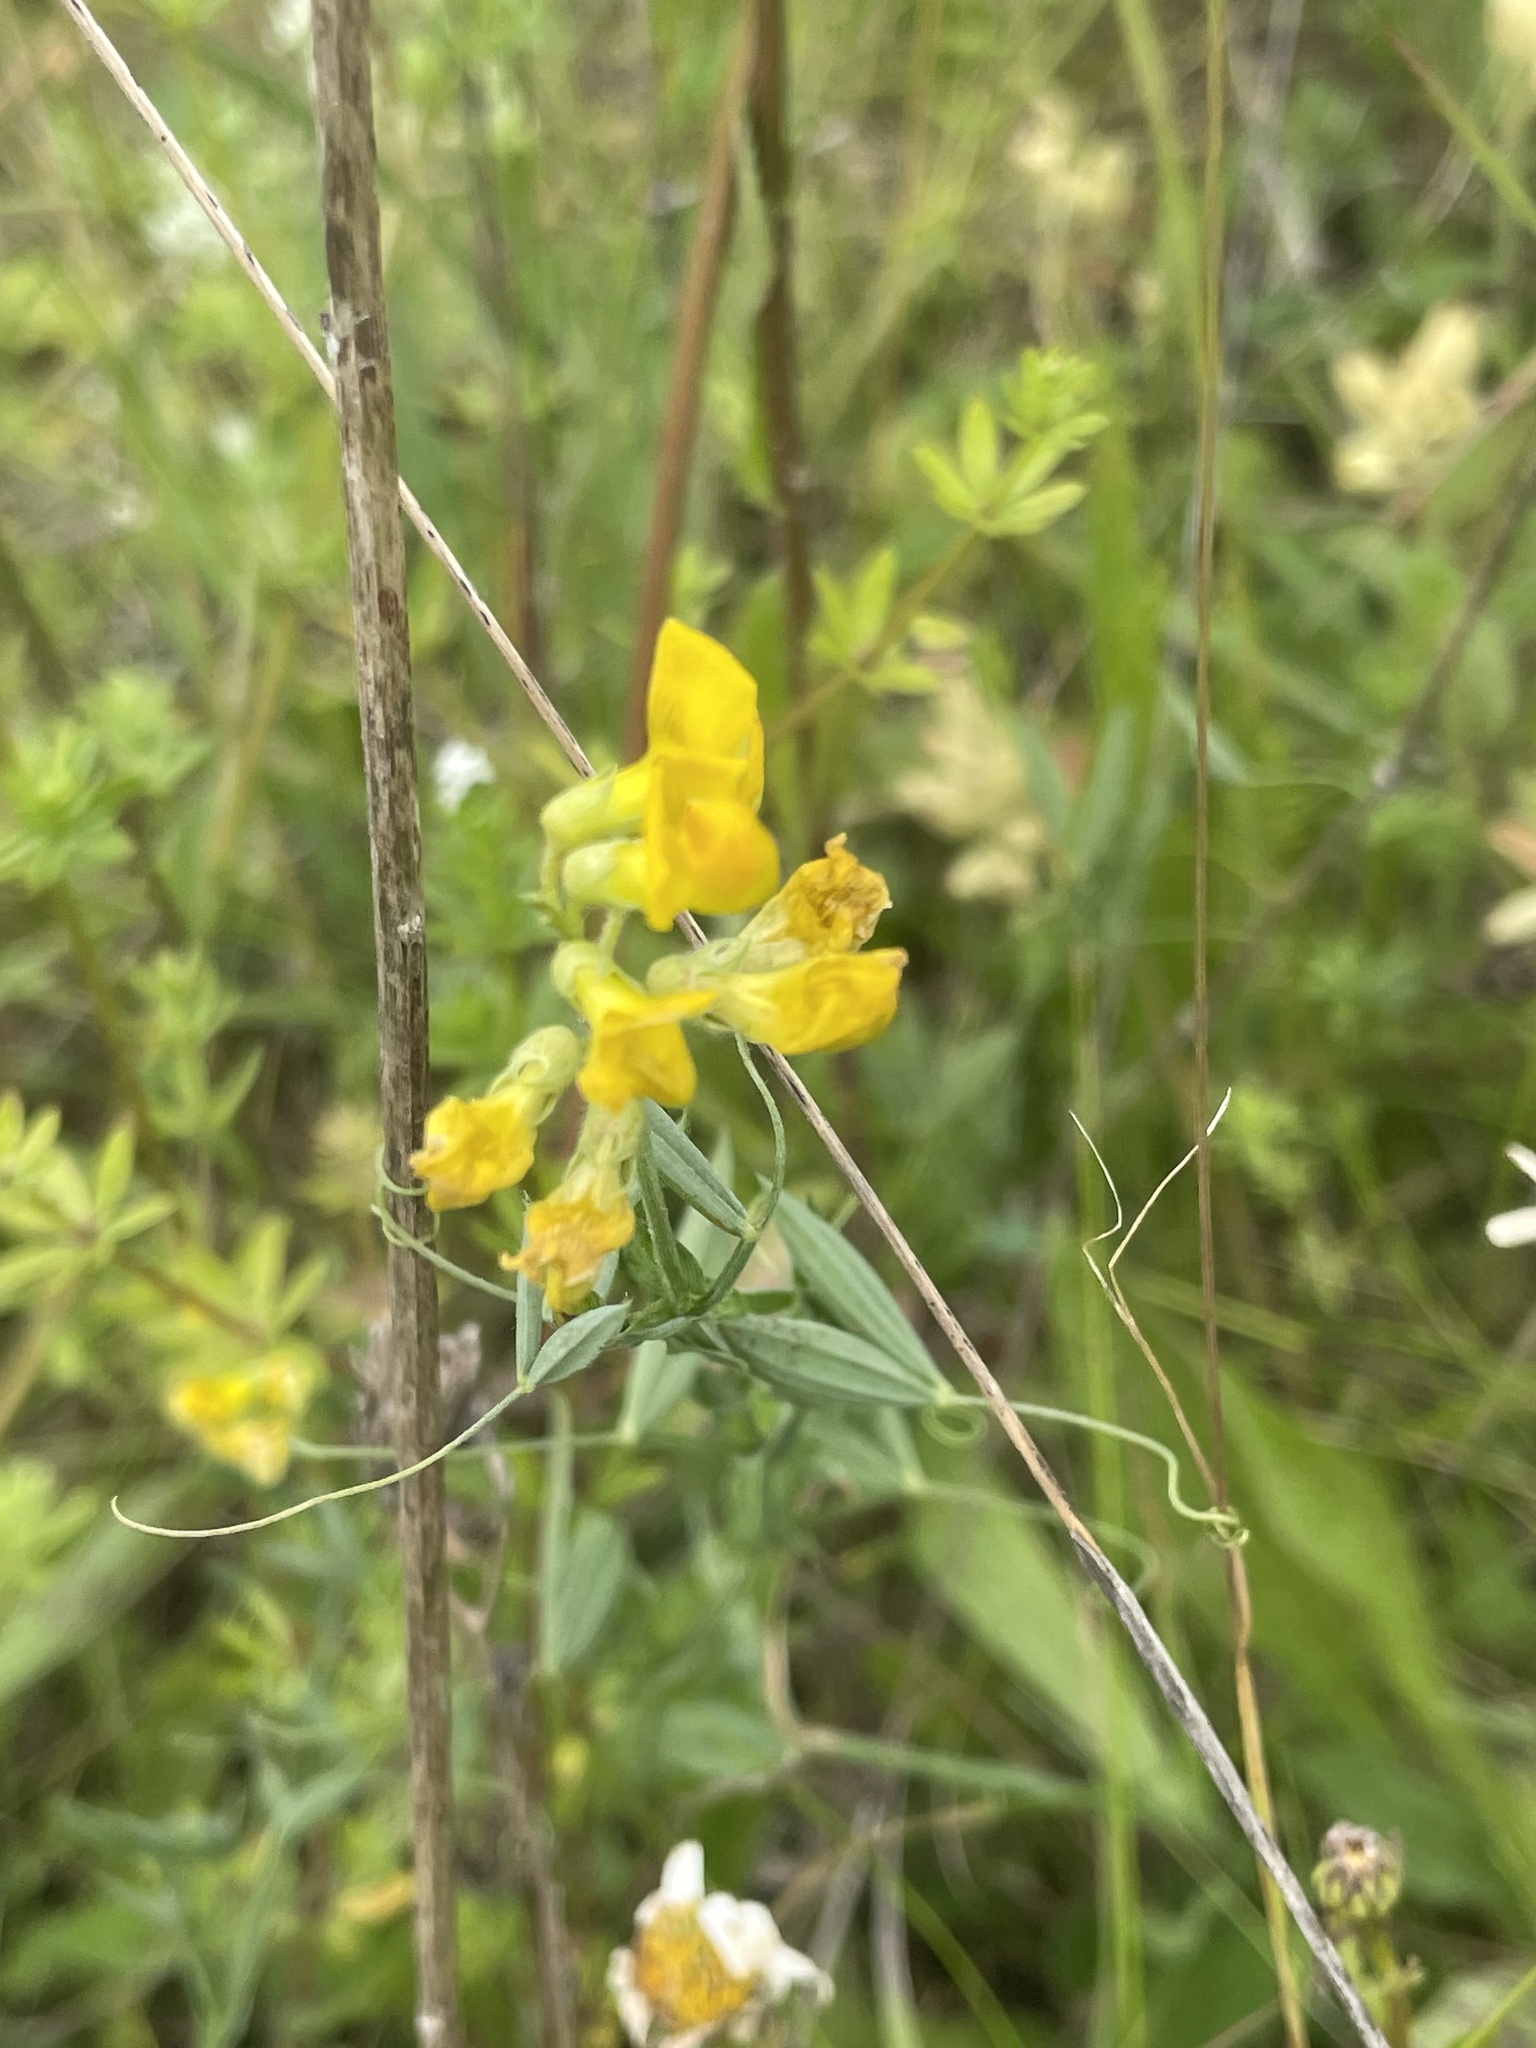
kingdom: Plantae
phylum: Tracheophyta
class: Magnoliopsida
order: Fabales
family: Fabaceae
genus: Lathyrus
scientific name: Lathyrus pratensis
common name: Meadow vetchling
